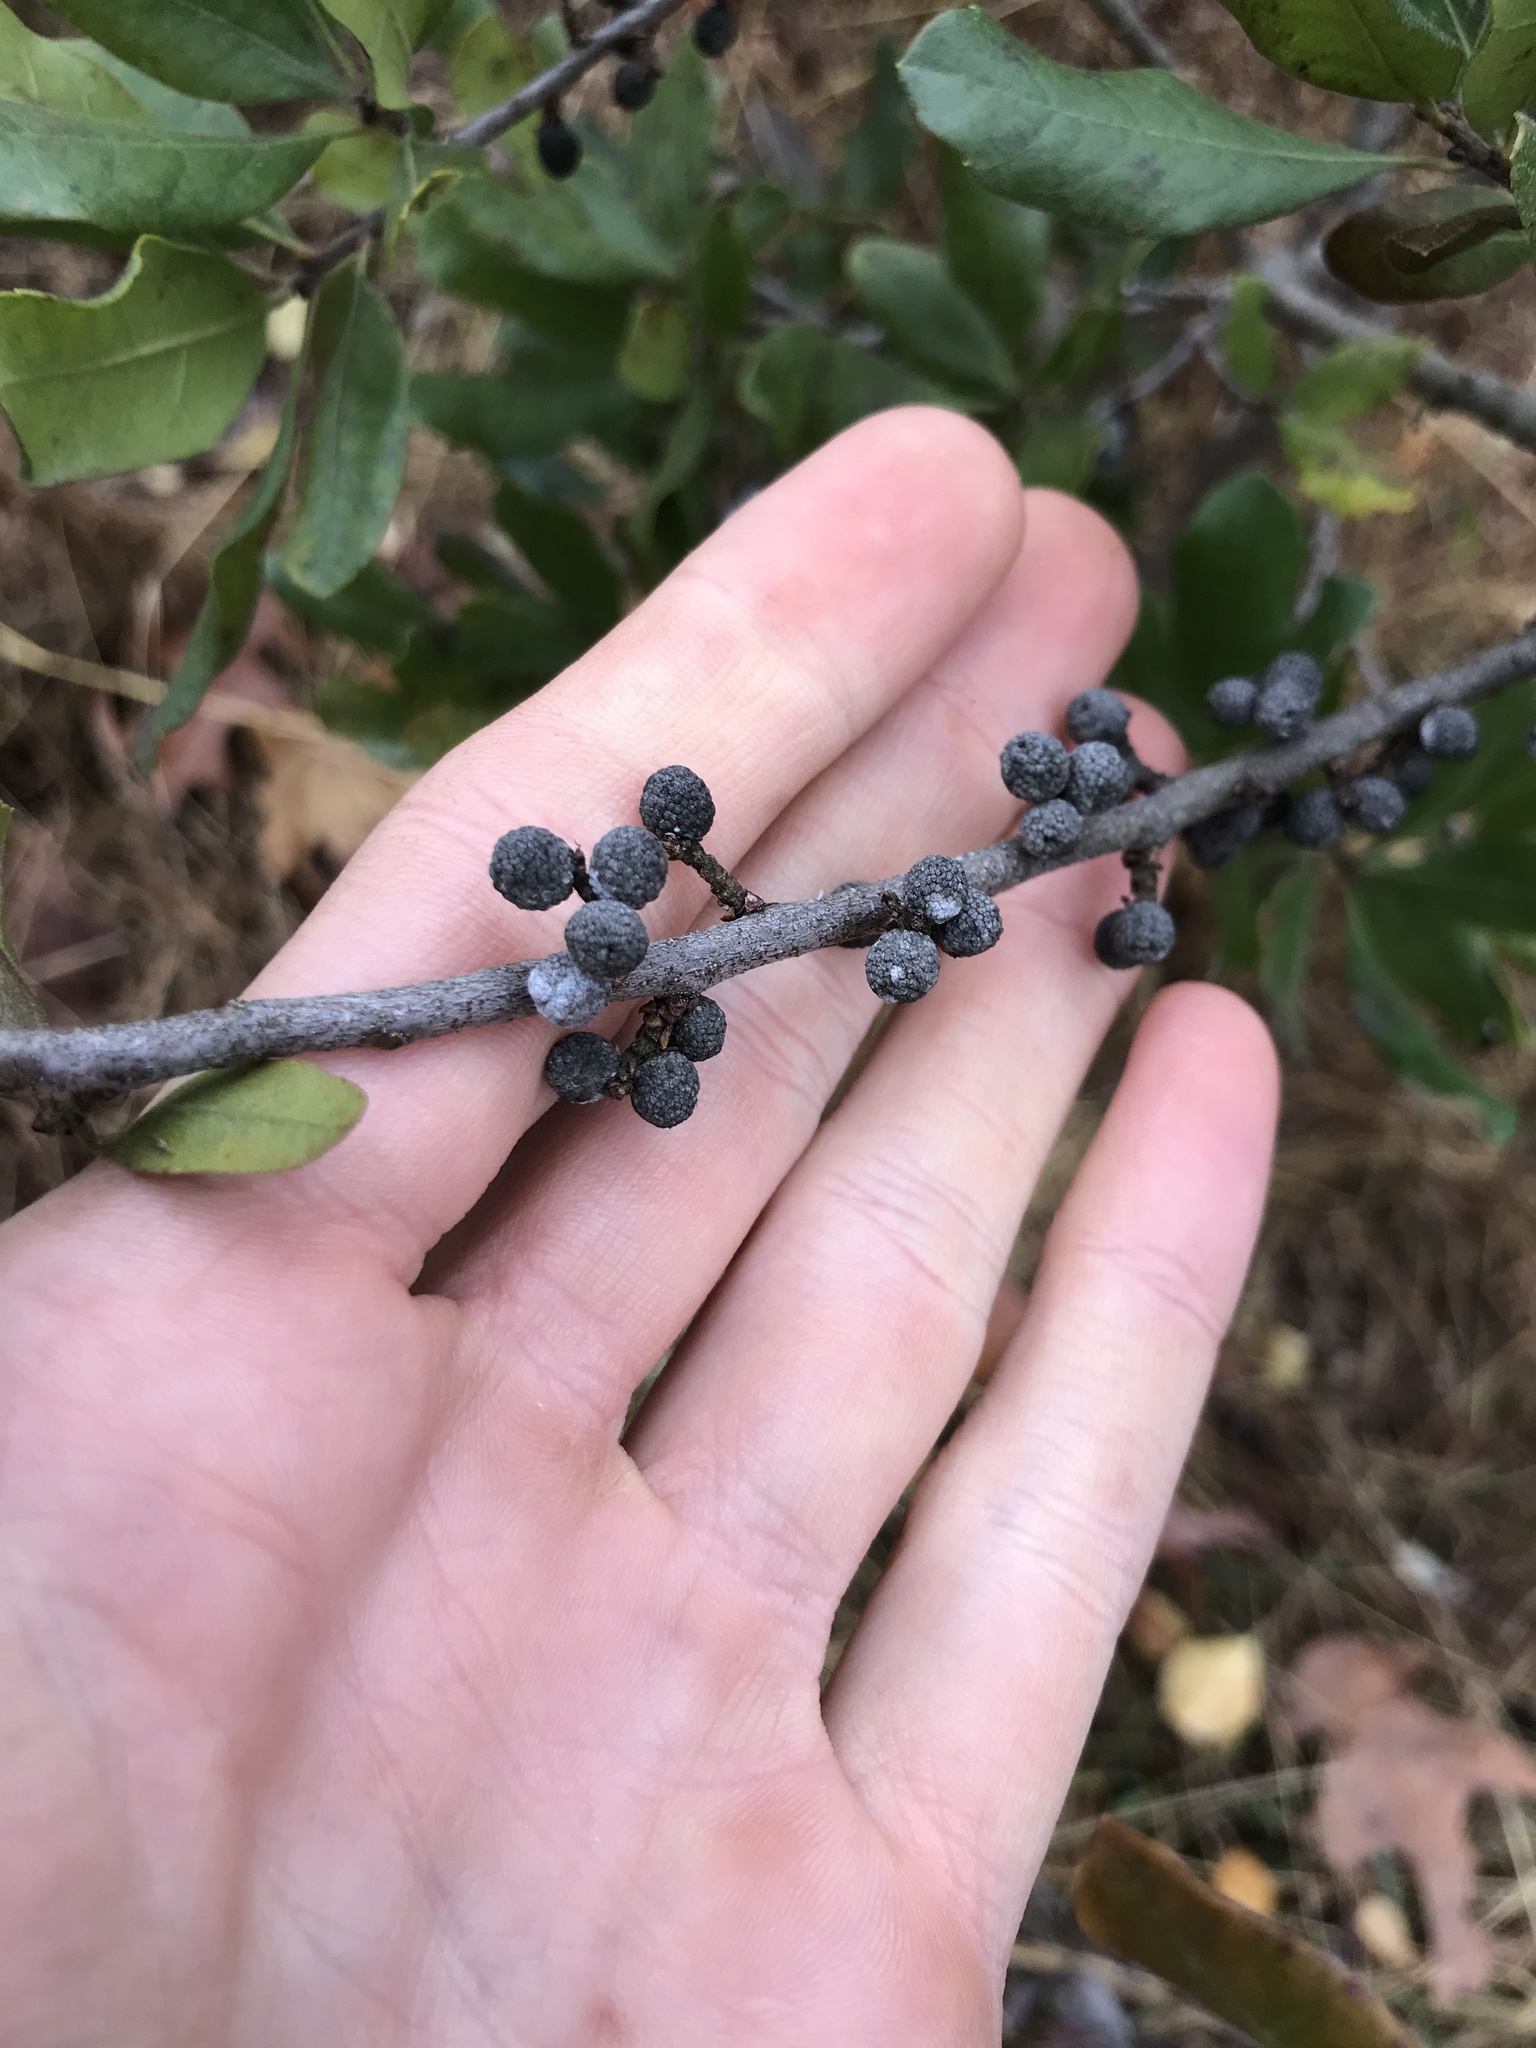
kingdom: Plantae
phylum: Tracheophyta
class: Magnoliopsida
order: Fagales
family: Myricaceae
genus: Morella
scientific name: Morella pensylvanica
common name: Northern bayberry
